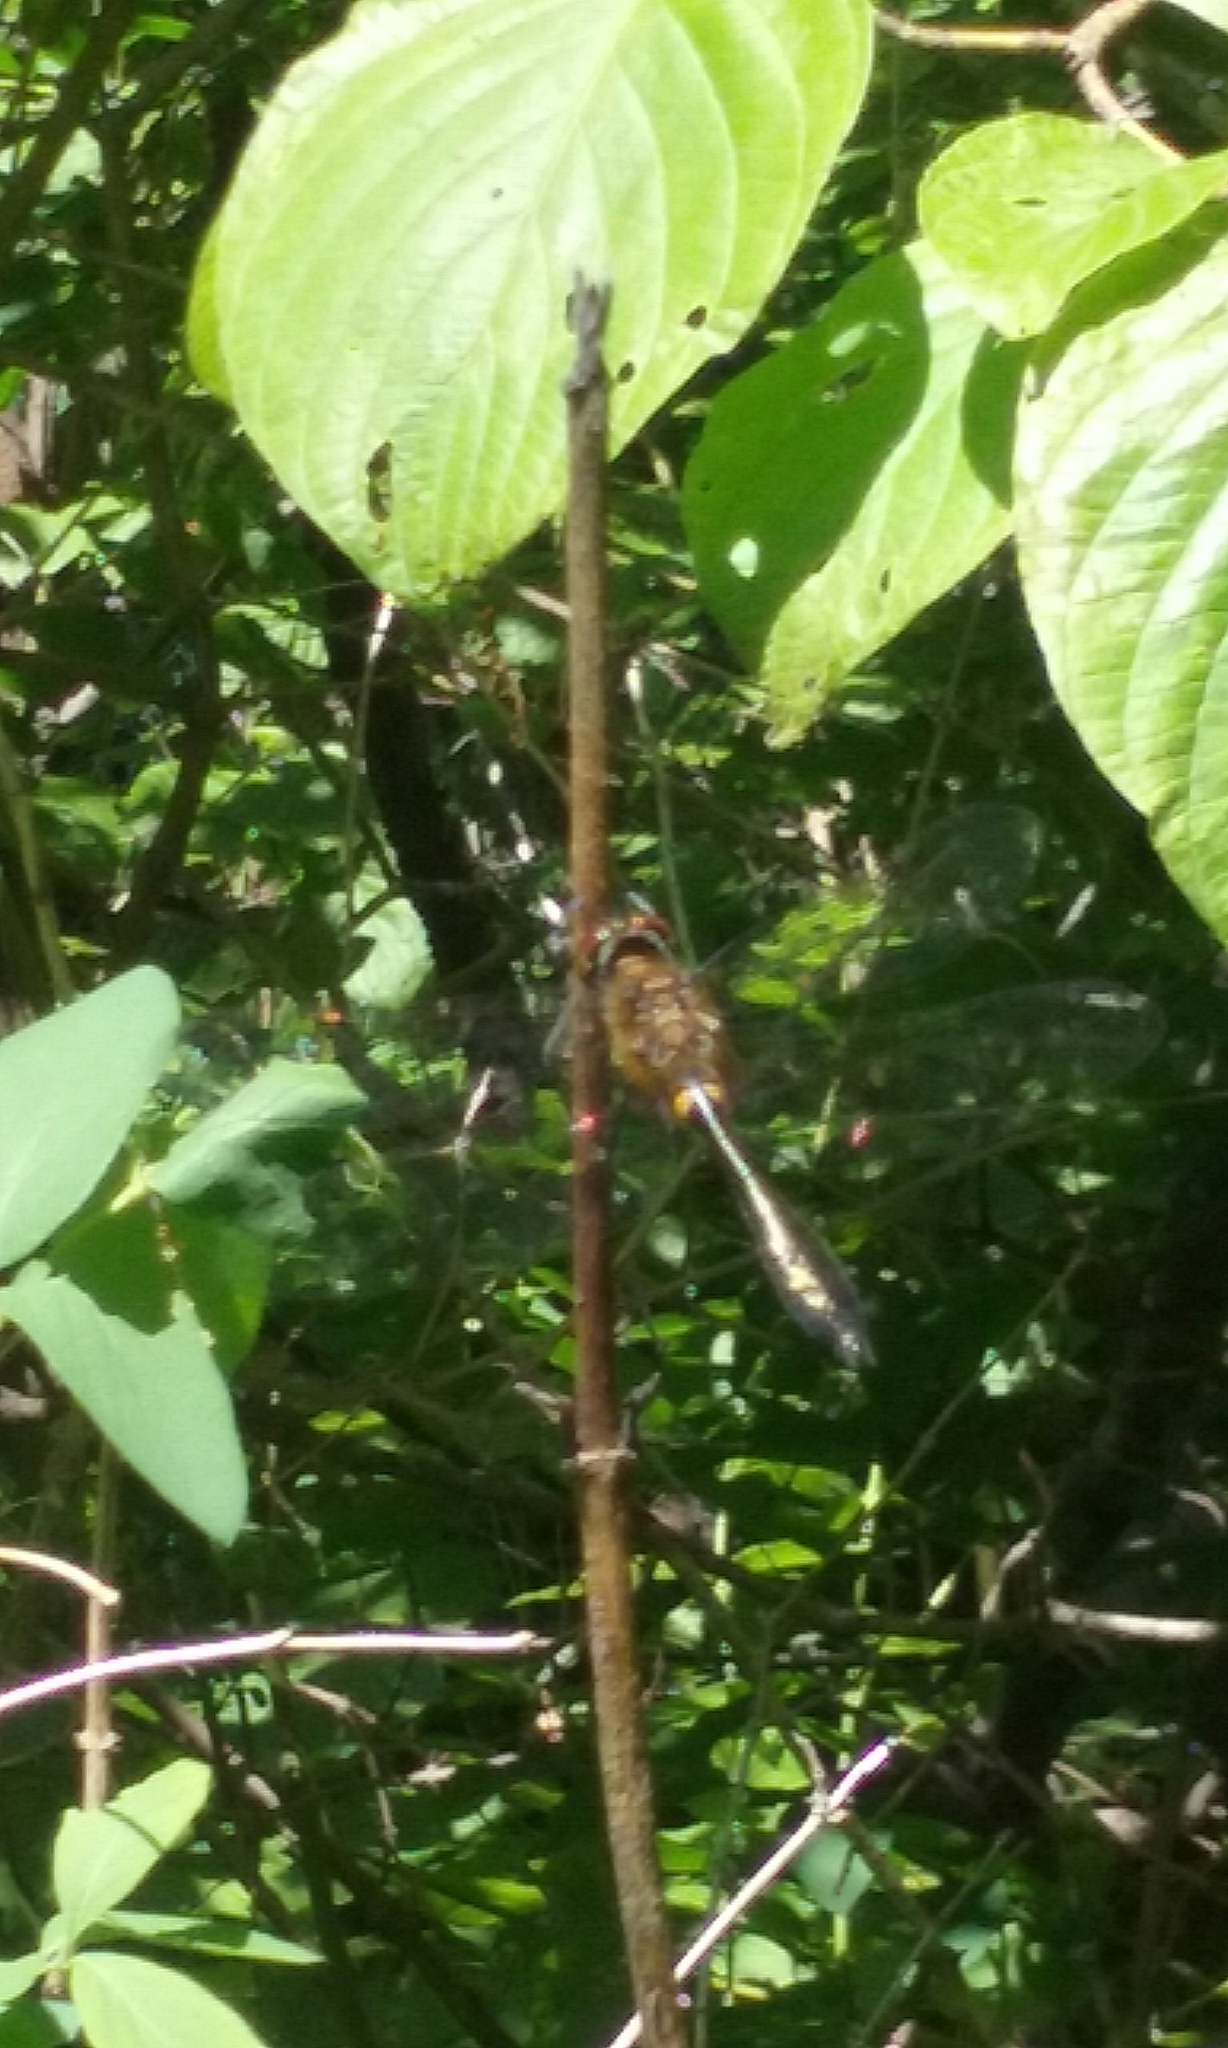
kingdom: Animalia
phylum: Arthropoda
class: Insecta
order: Odonata
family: Corduliidae
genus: Dorocordulia
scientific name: Dorocordulia libera
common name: Racket-tailed emerald
